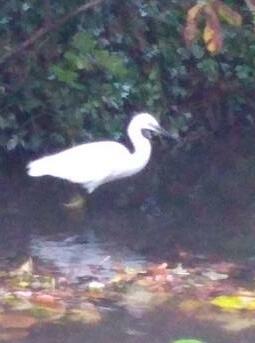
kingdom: Animalia
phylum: Chordata
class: Aves
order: Pelecaniformes
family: Ardeidae
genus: Egretta
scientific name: Egretta garzetta
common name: Little egret
